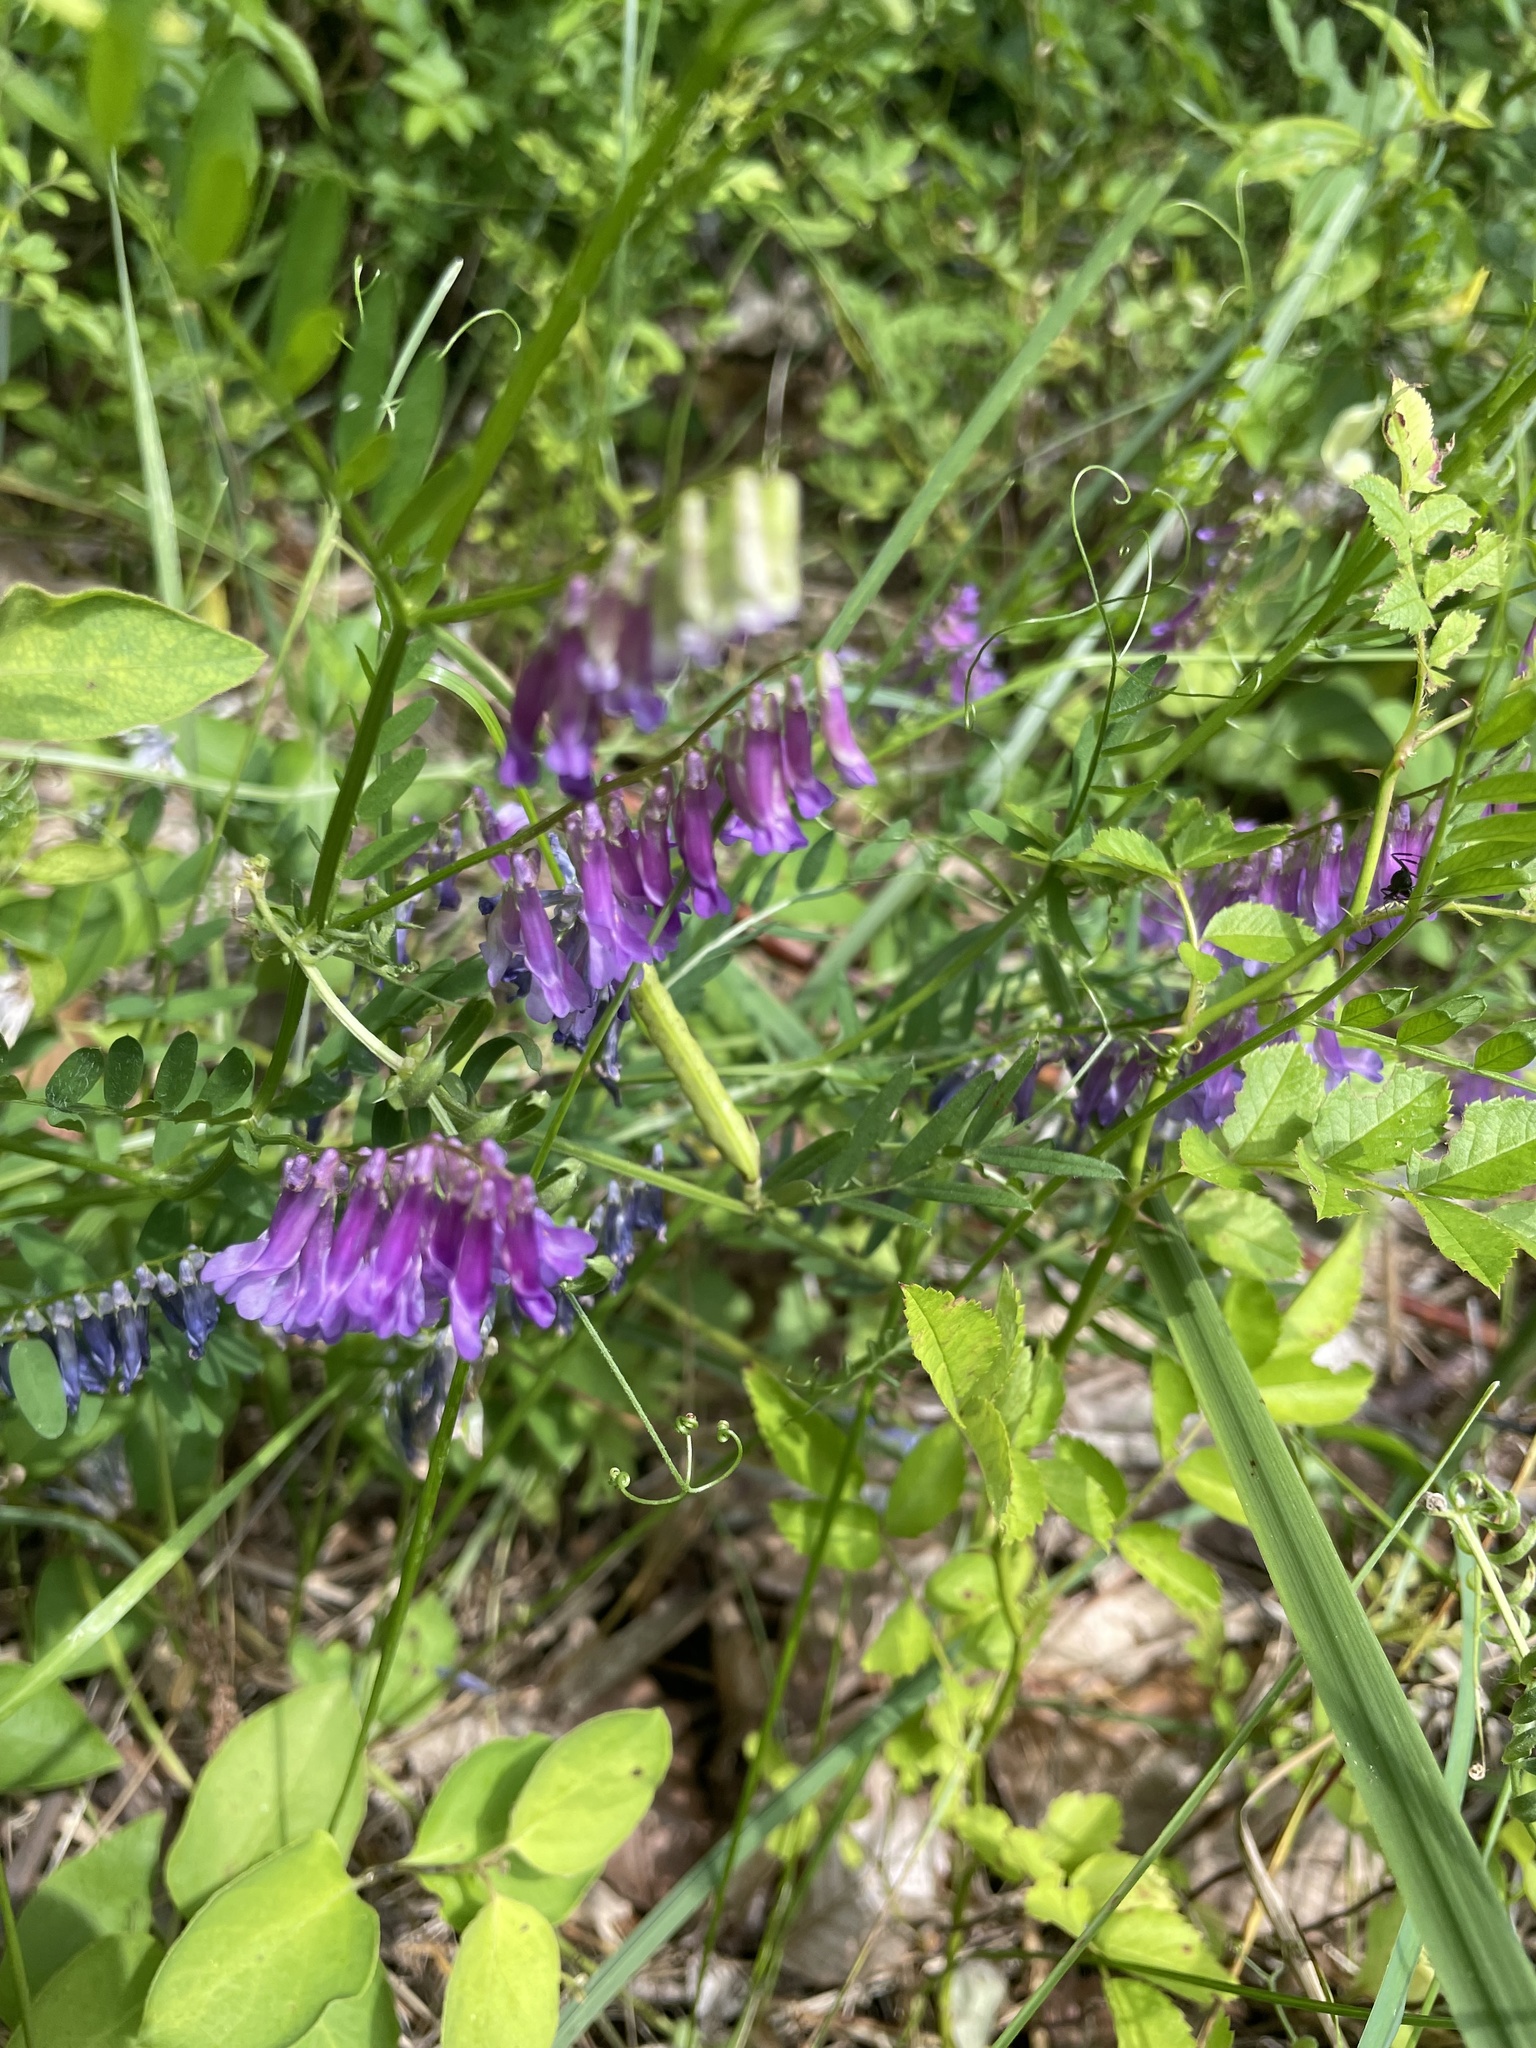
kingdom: Plantae
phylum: Tracheophyta
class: Magnoliopsida
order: Fabales
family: Fabaceae
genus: Vicia
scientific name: Vicia villosa
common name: Fodder vetch
